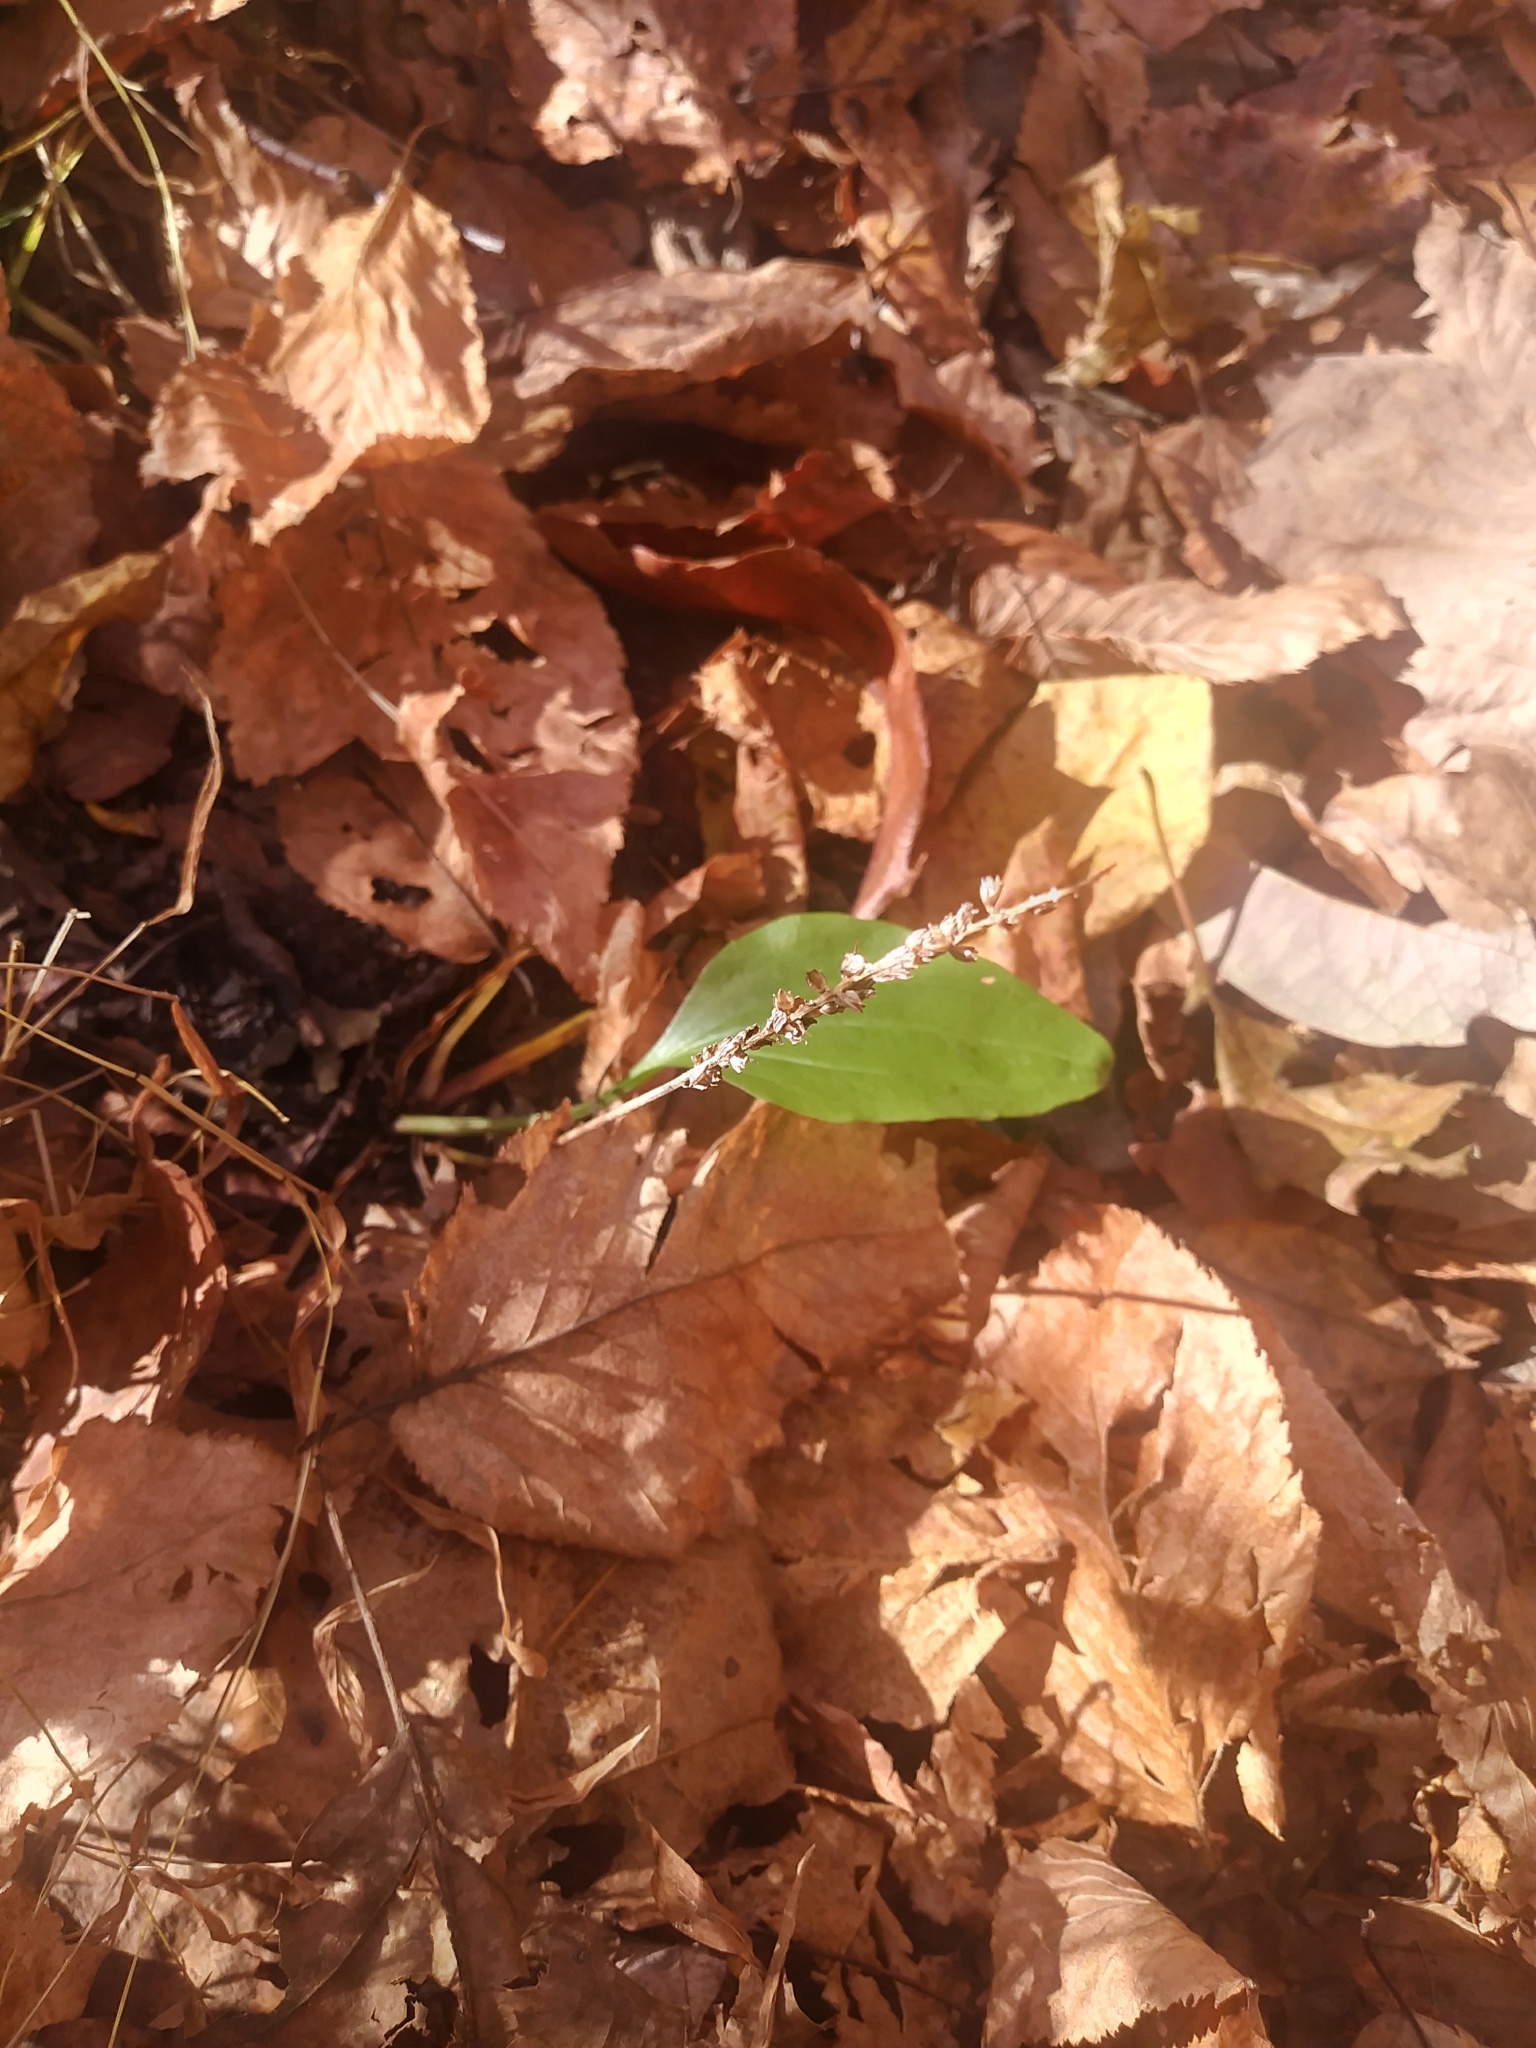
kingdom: Plantae
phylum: Tracheophyta
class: Magnoliopsida
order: Lamiales
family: Plantaginaceae
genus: Plantago
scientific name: Plantago major
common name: Common plantain
